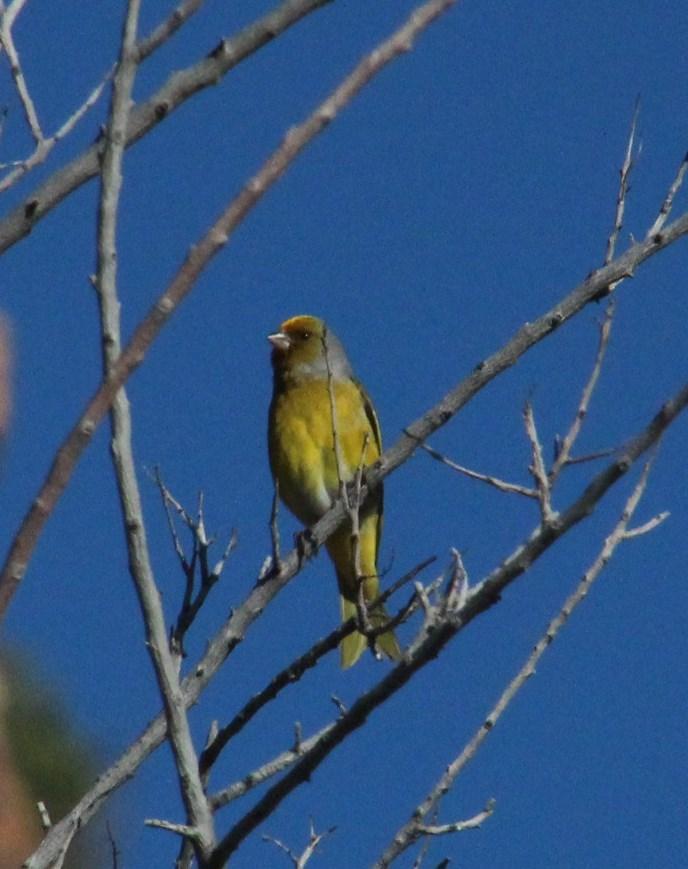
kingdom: Animalia
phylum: Chordata
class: Aves
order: Passeriformes
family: Fringillidae
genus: Serinus
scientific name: Serinus canicollis
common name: Cape canary
